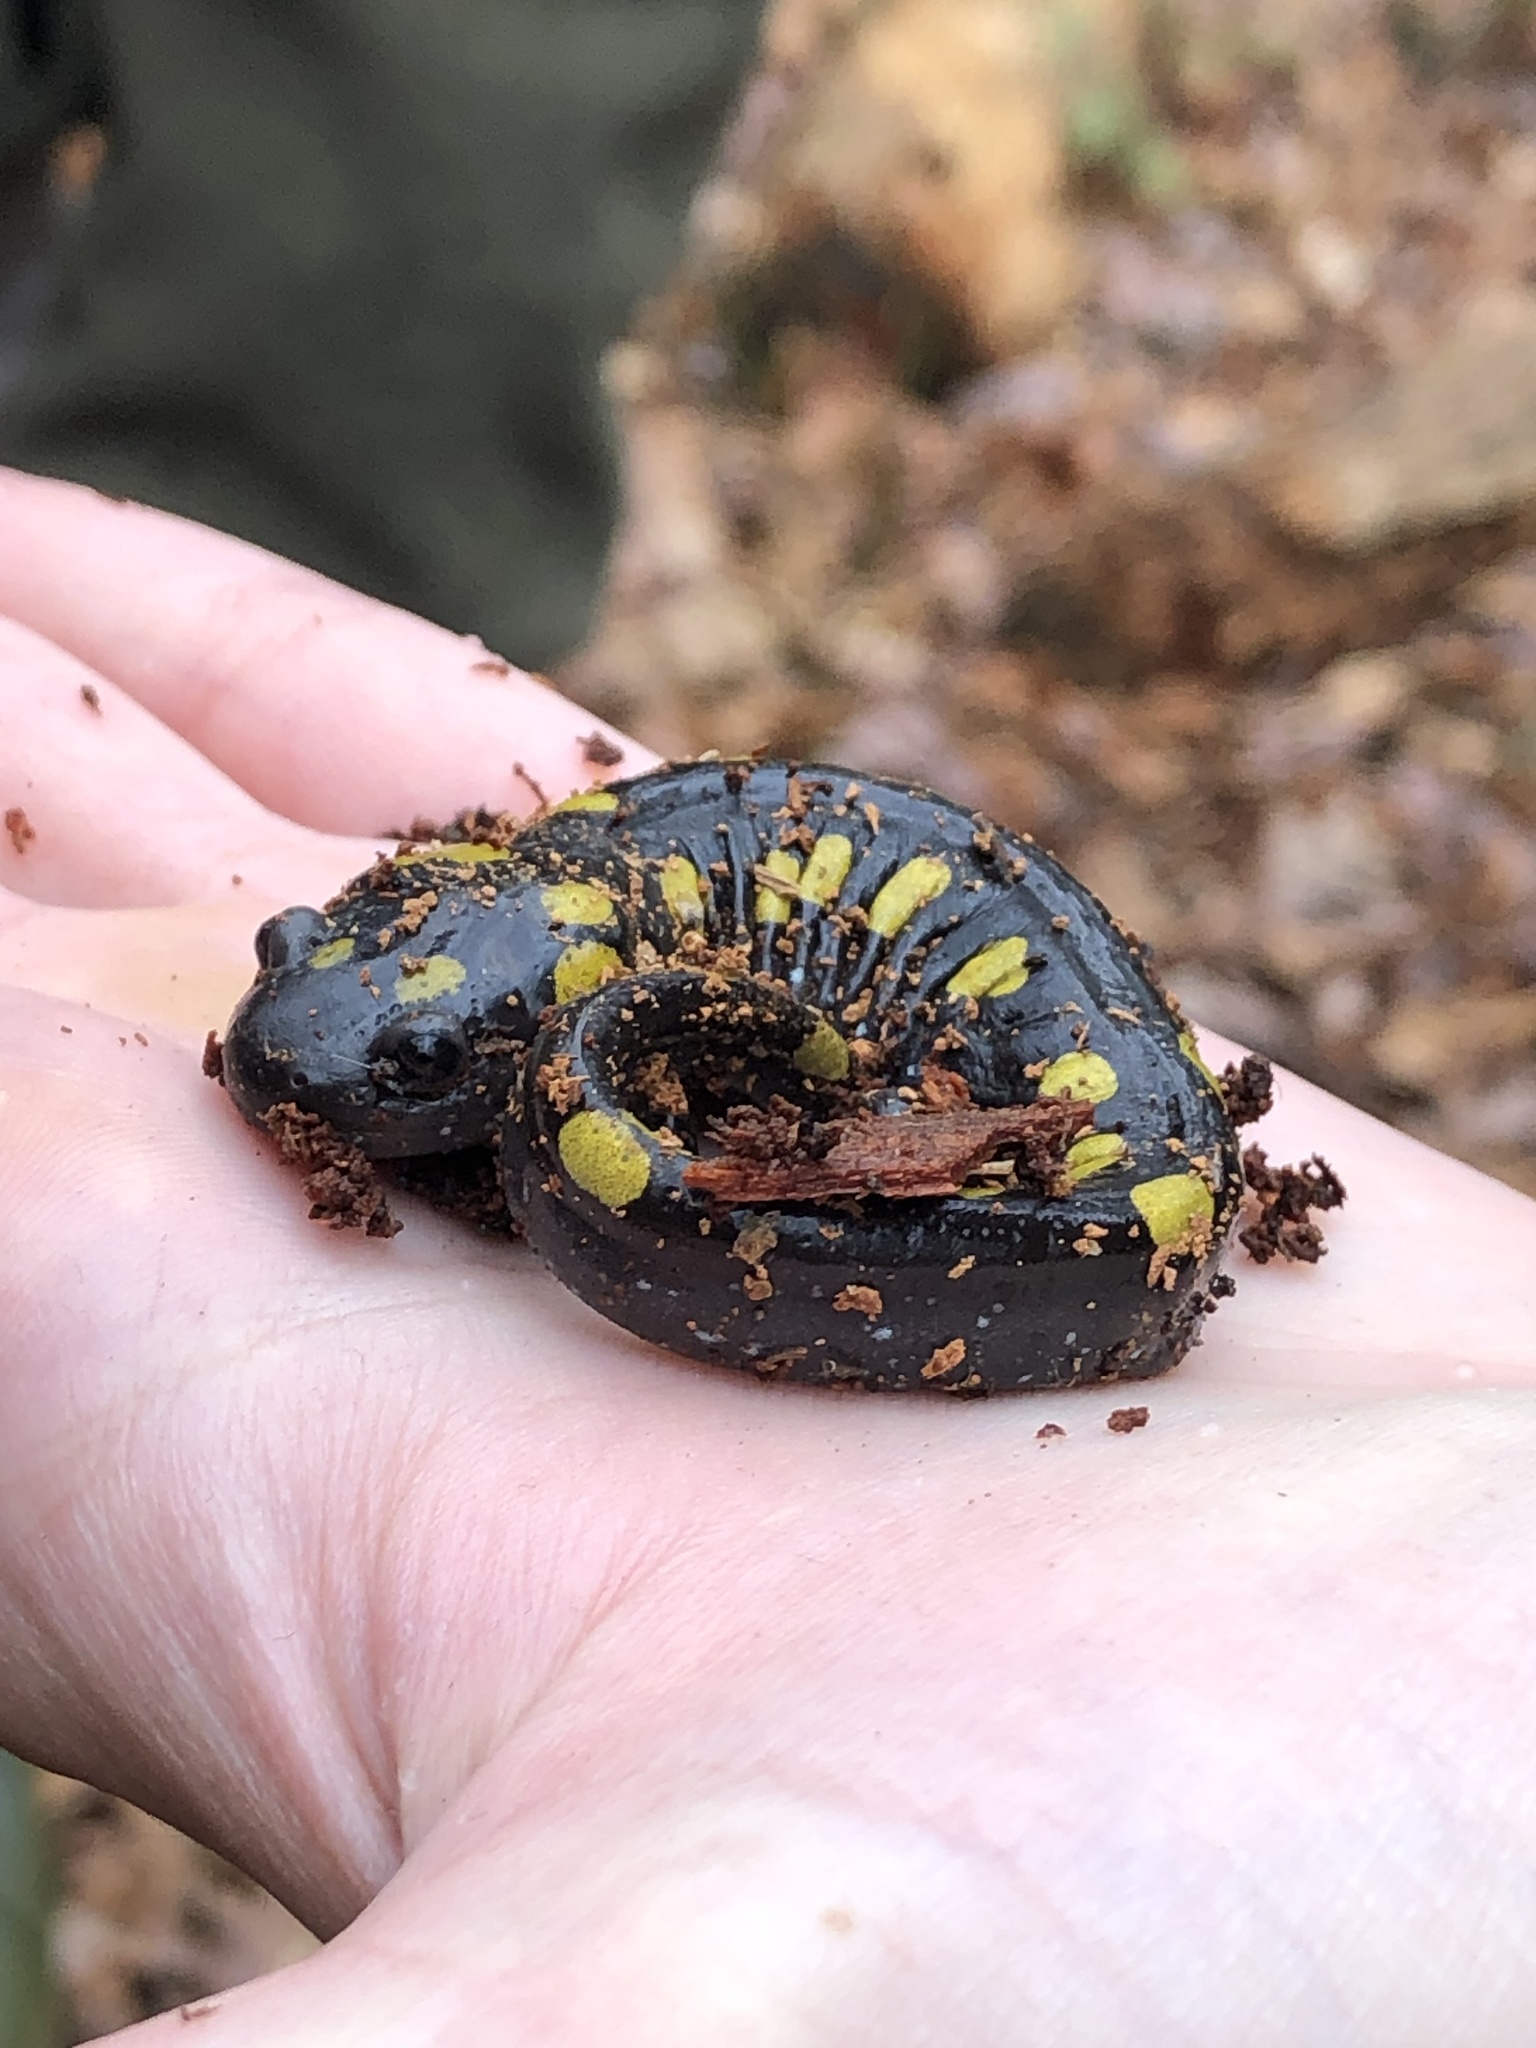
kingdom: Animalia
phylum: Chordata
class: Amphibia
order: Caudata
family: Ambystomatidae
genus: Ambystoma
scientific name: Ambystoma maculatum
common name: Spotted salamander
